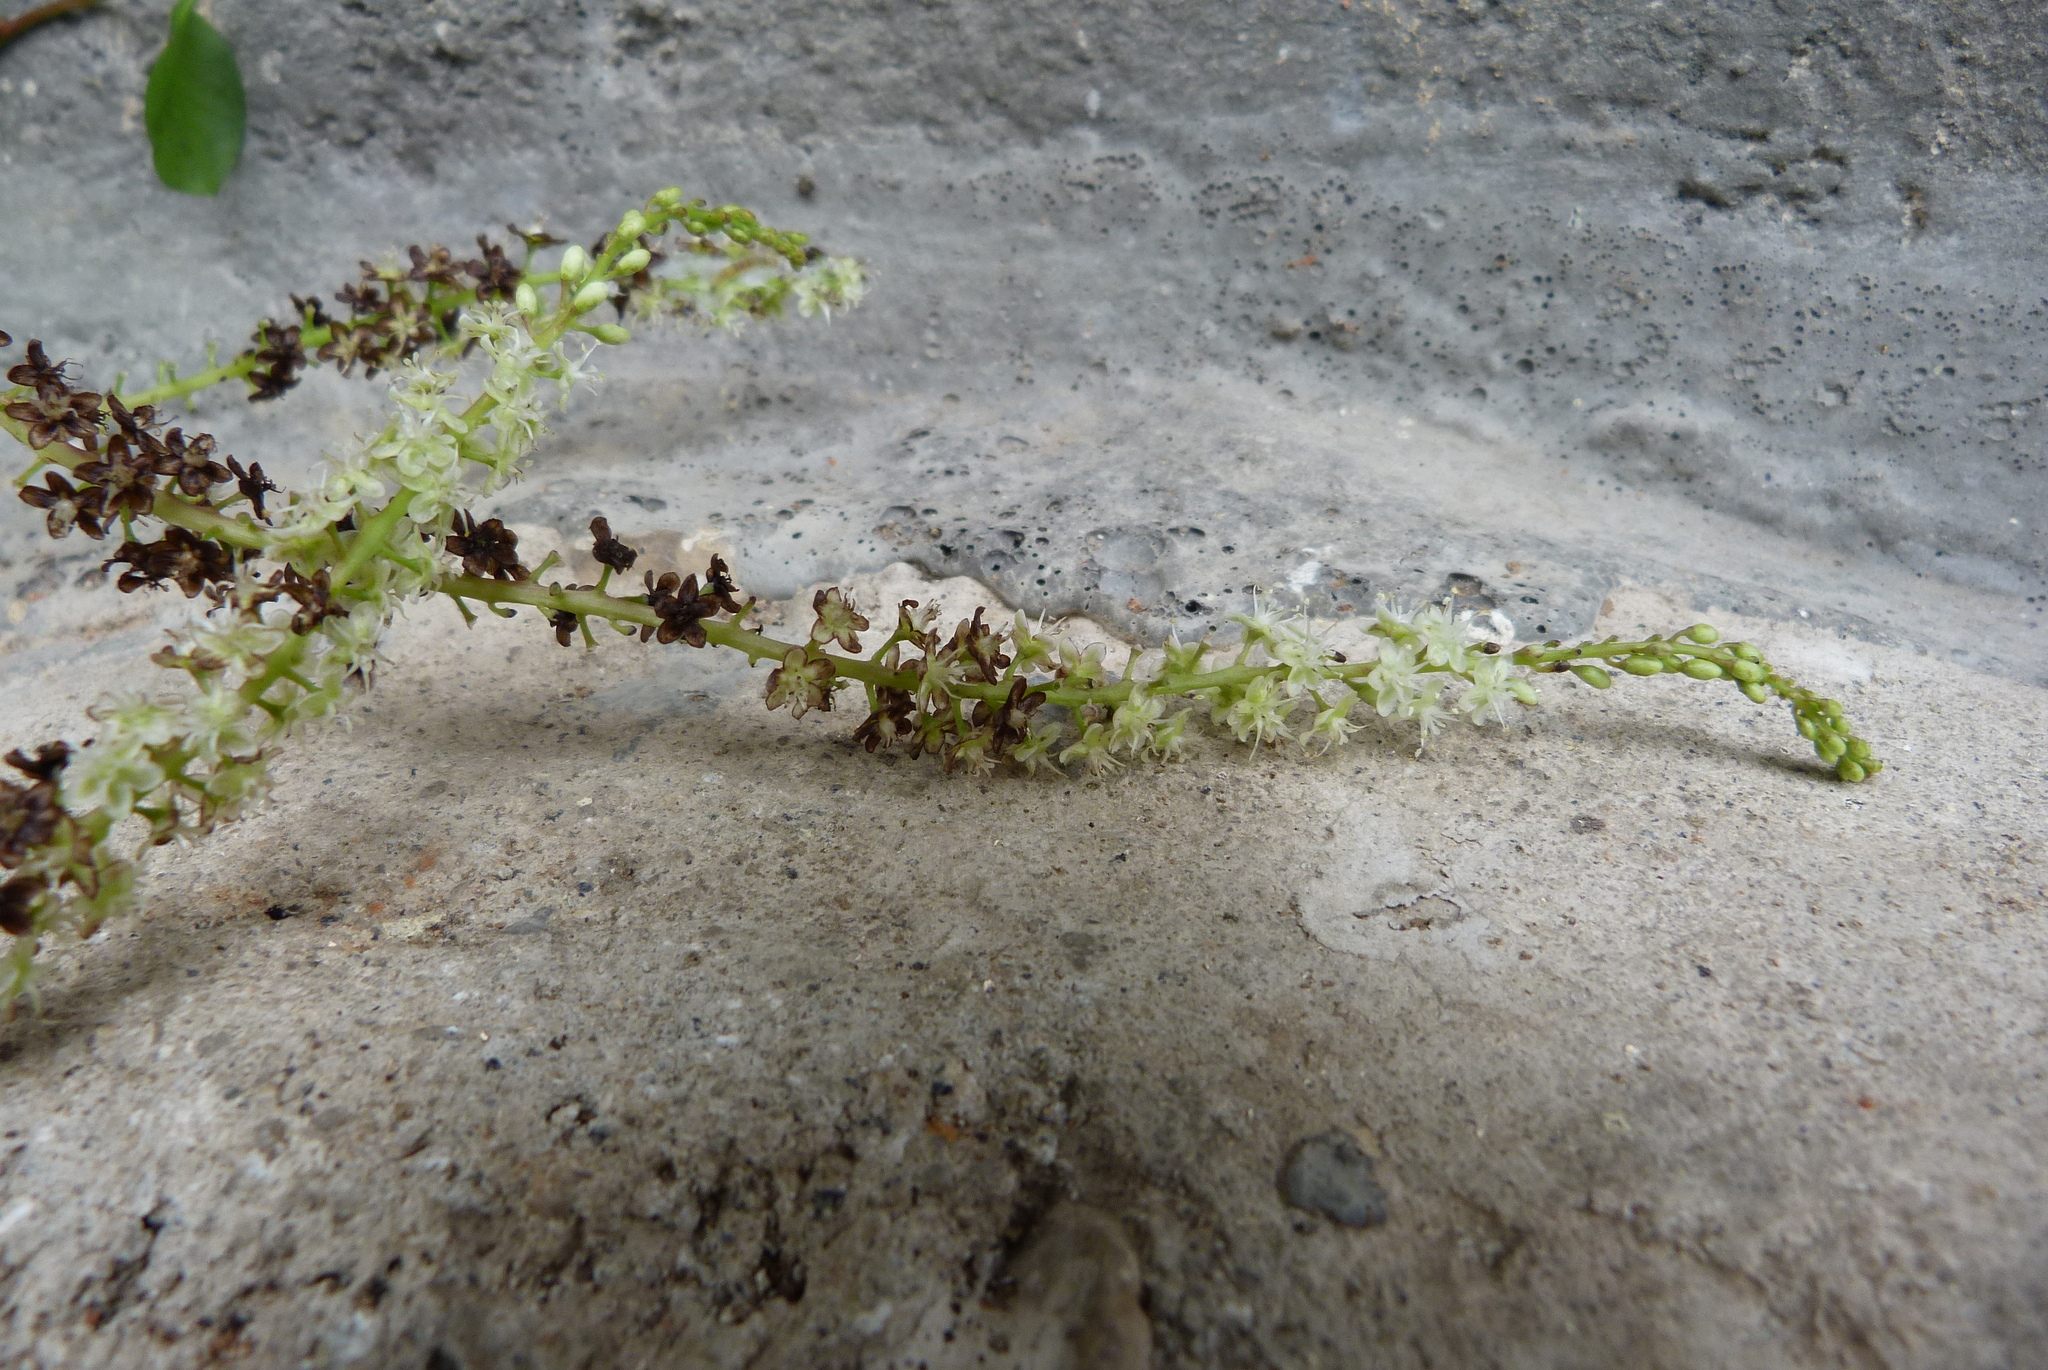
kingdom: Plantae
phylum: Tracheophyta
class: Magnoliopsida
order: Caryophyllales
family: Basellaceae
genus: Anredera
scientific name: Anredera cordifolia
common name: Heartleaf madeiravine
